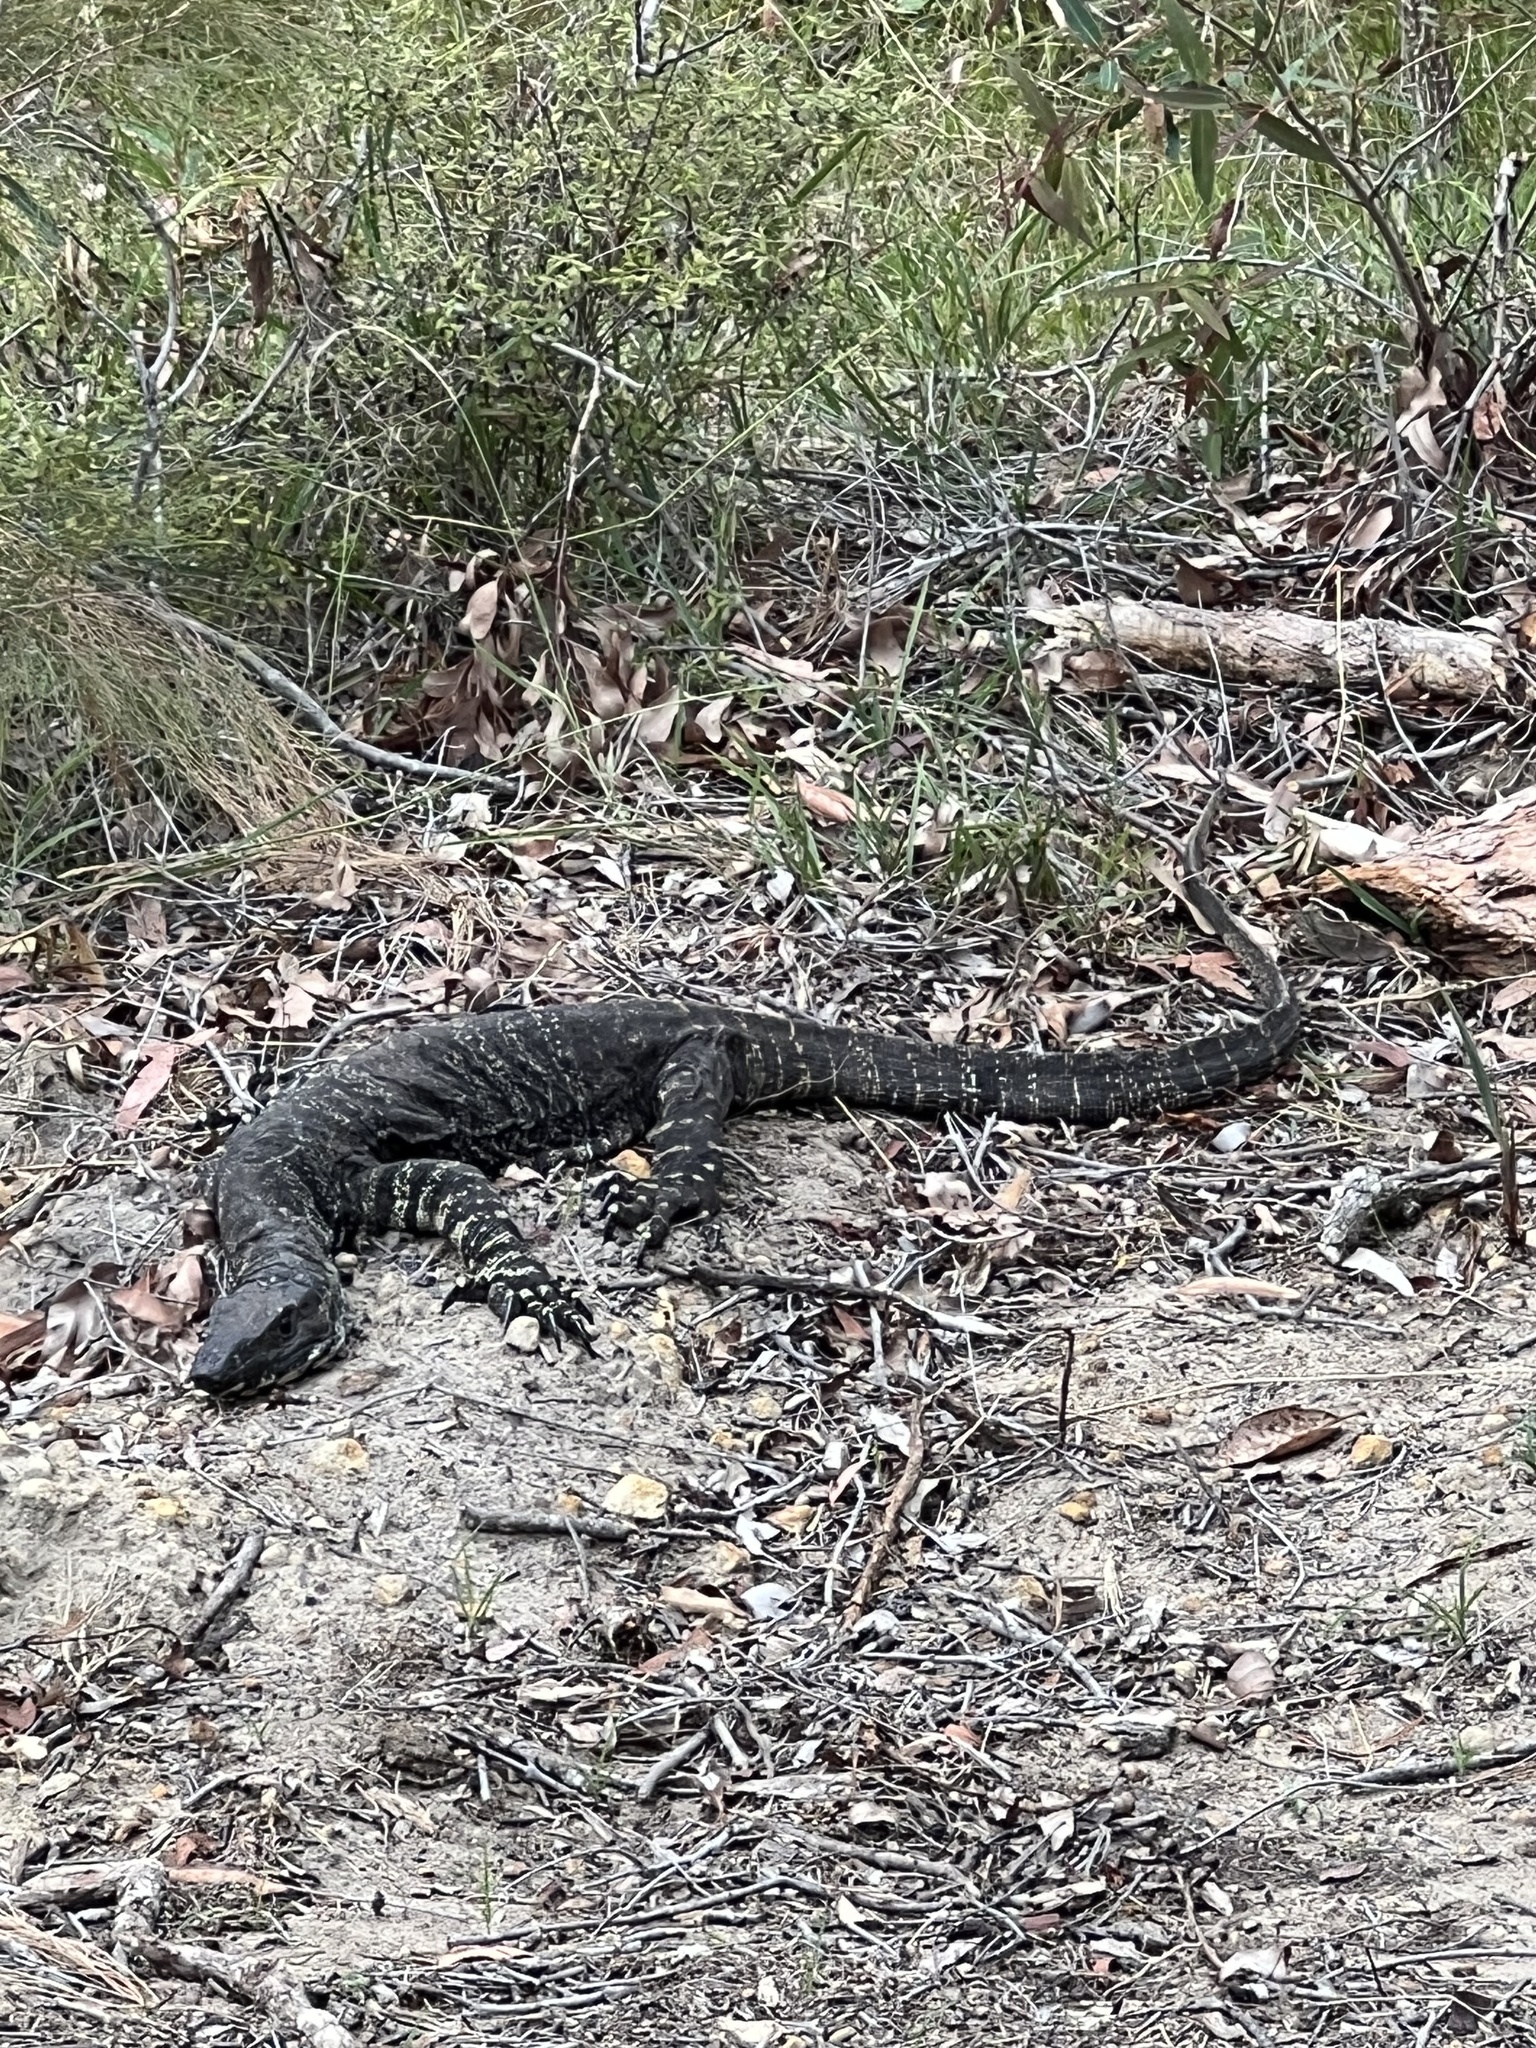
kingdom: Animalia
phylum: Chordata
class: Squamata
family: Varanidae
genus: Varanus
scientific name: Varanus varius
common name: Lace monitor
